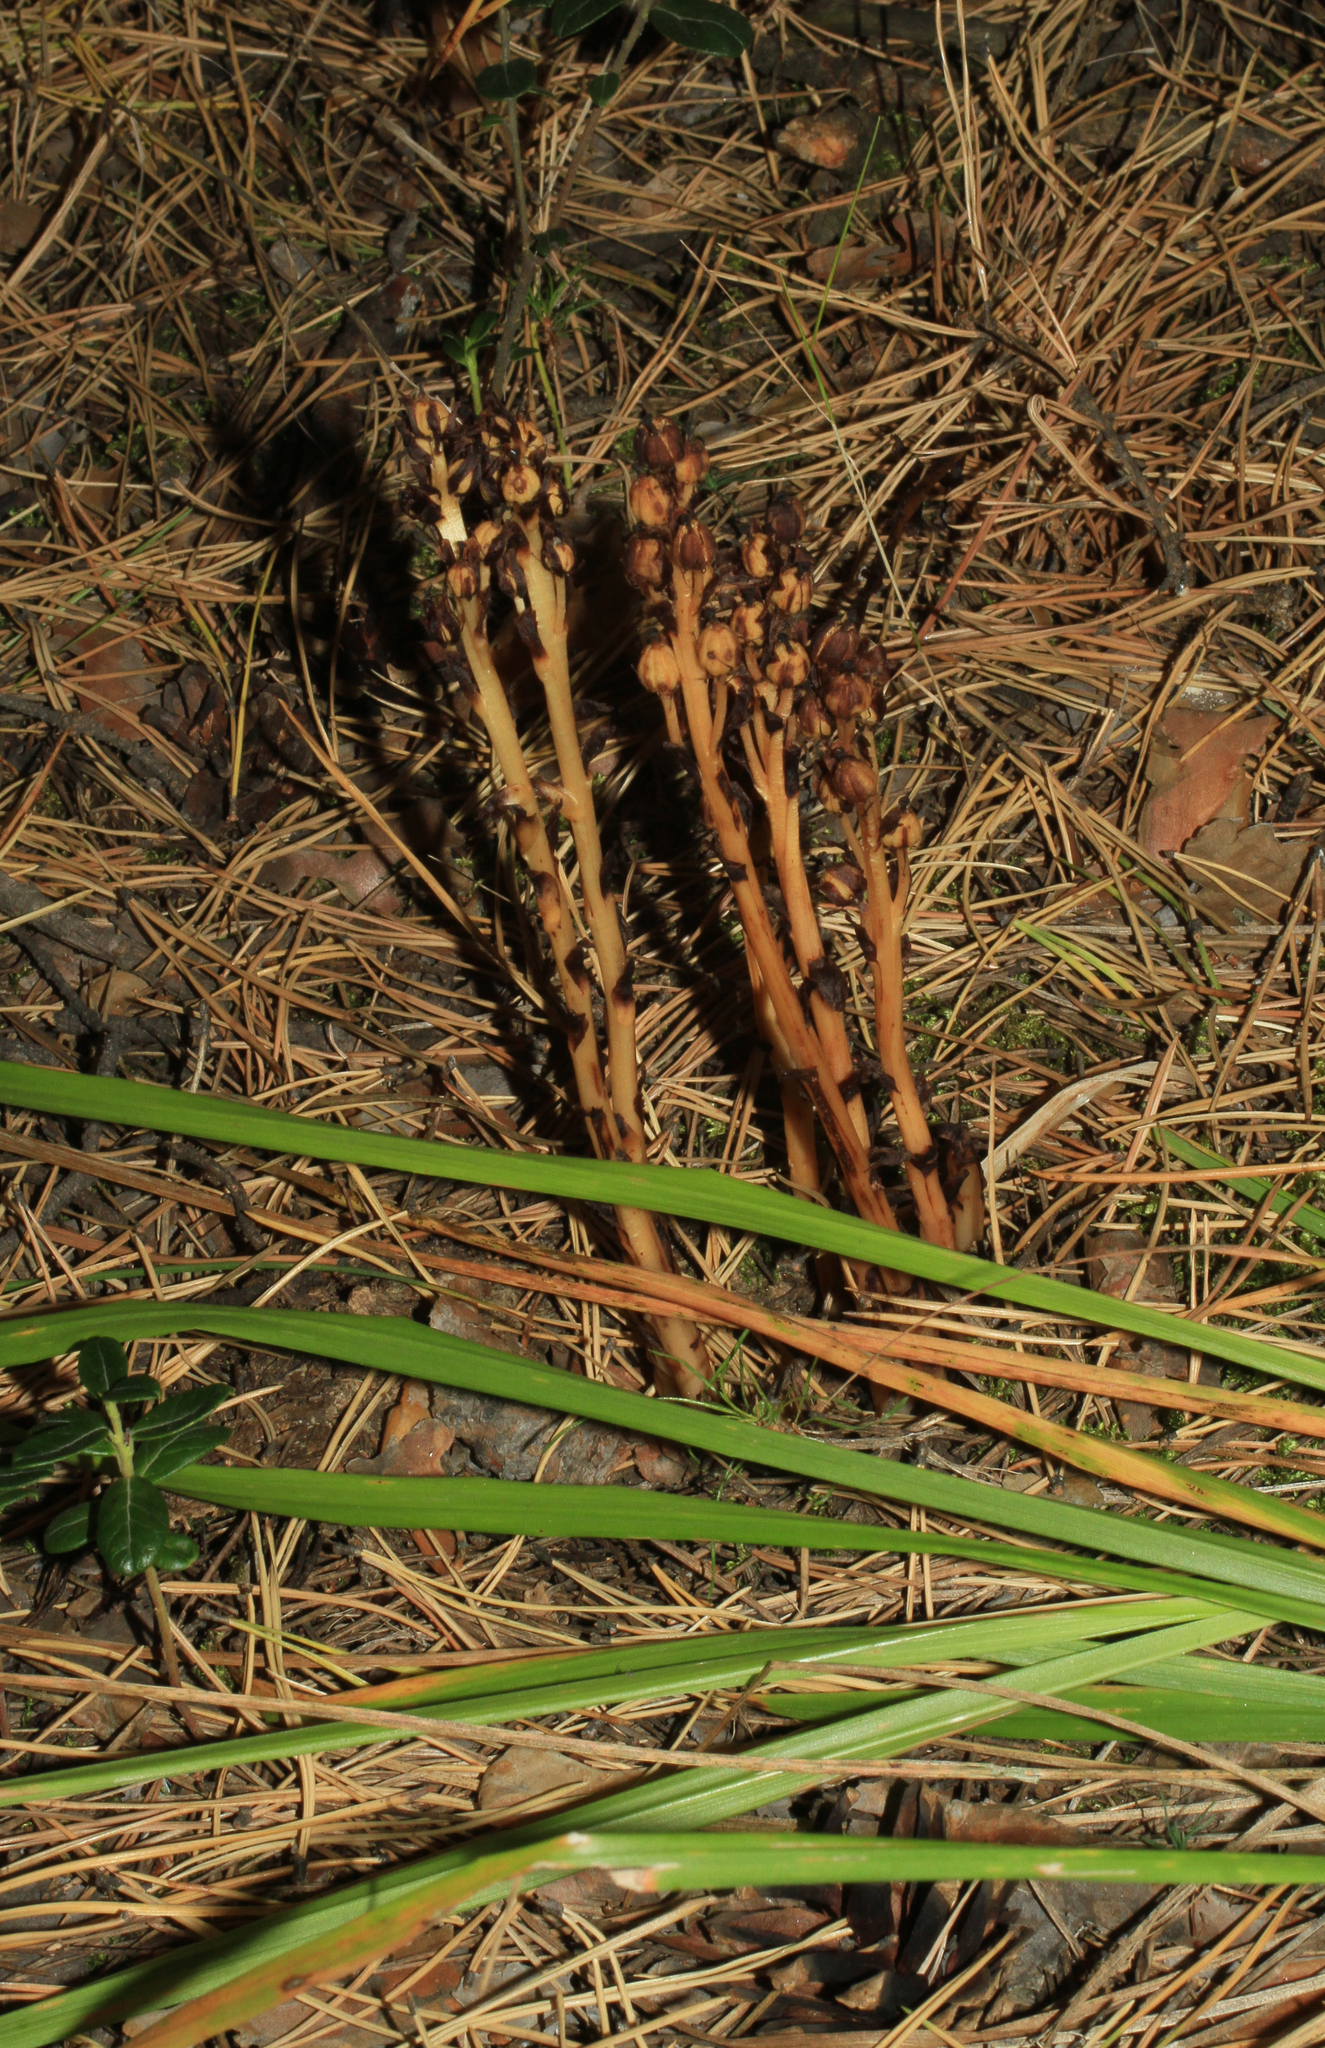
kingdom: Plantae
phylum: Tracheophyta
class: Magnoliopsida
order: Ericales
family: Ericaceae
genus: Hypopitys
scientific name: Hypopitys monotropa
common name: Yellow bird's-nest
